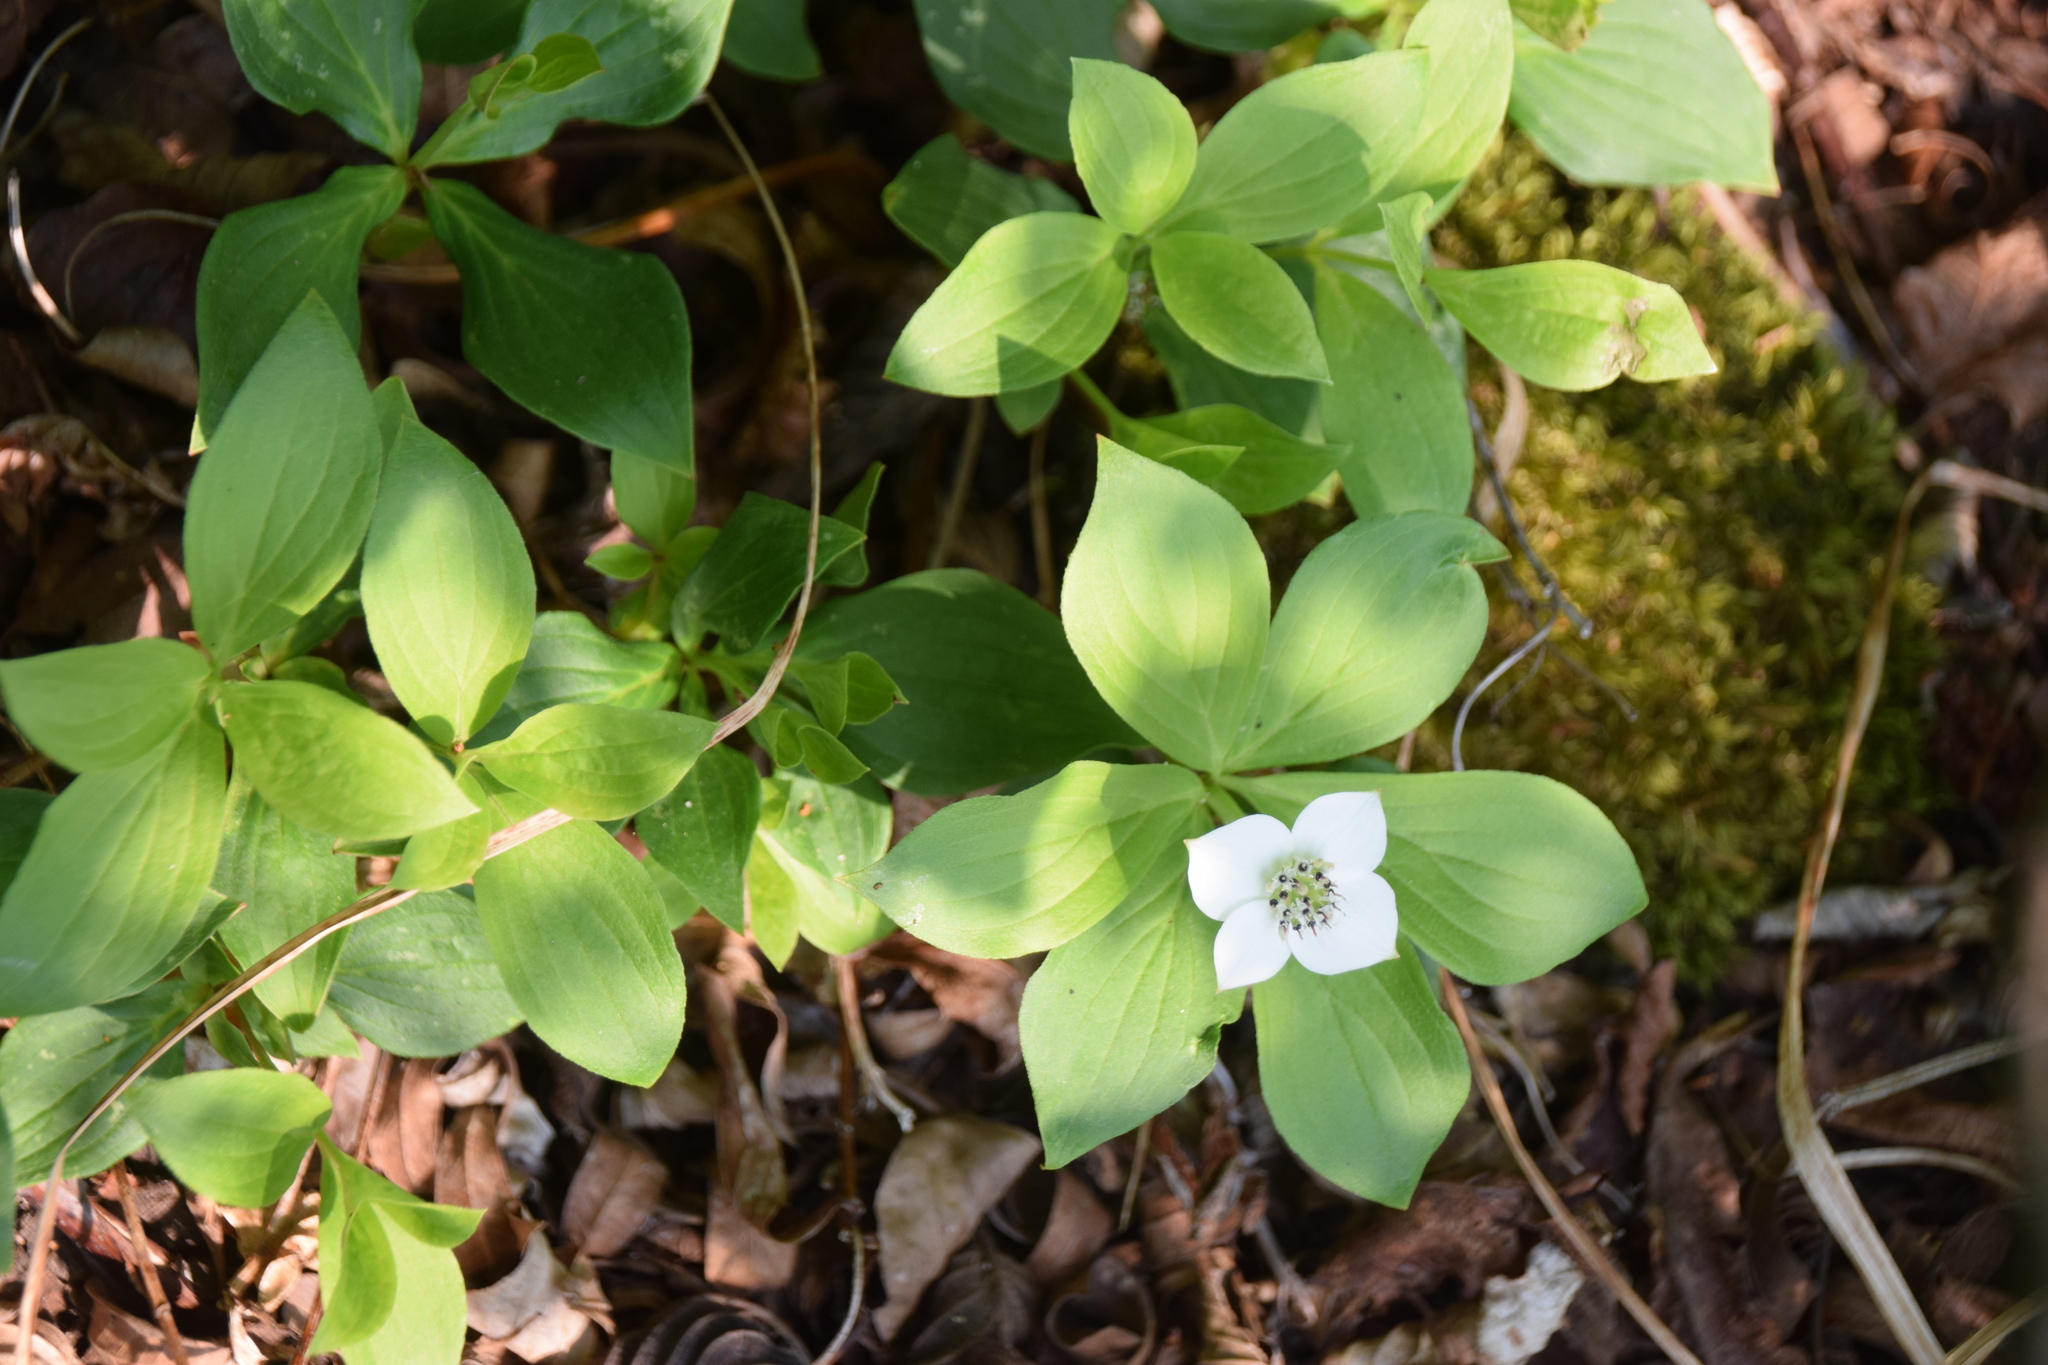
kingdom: Plantae
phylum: Tracheophyta
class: Magnoliopsida
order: Cornales
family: Cornaceae
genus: Cornus
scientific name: Cornus canadensis
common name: Creeping dogwood
